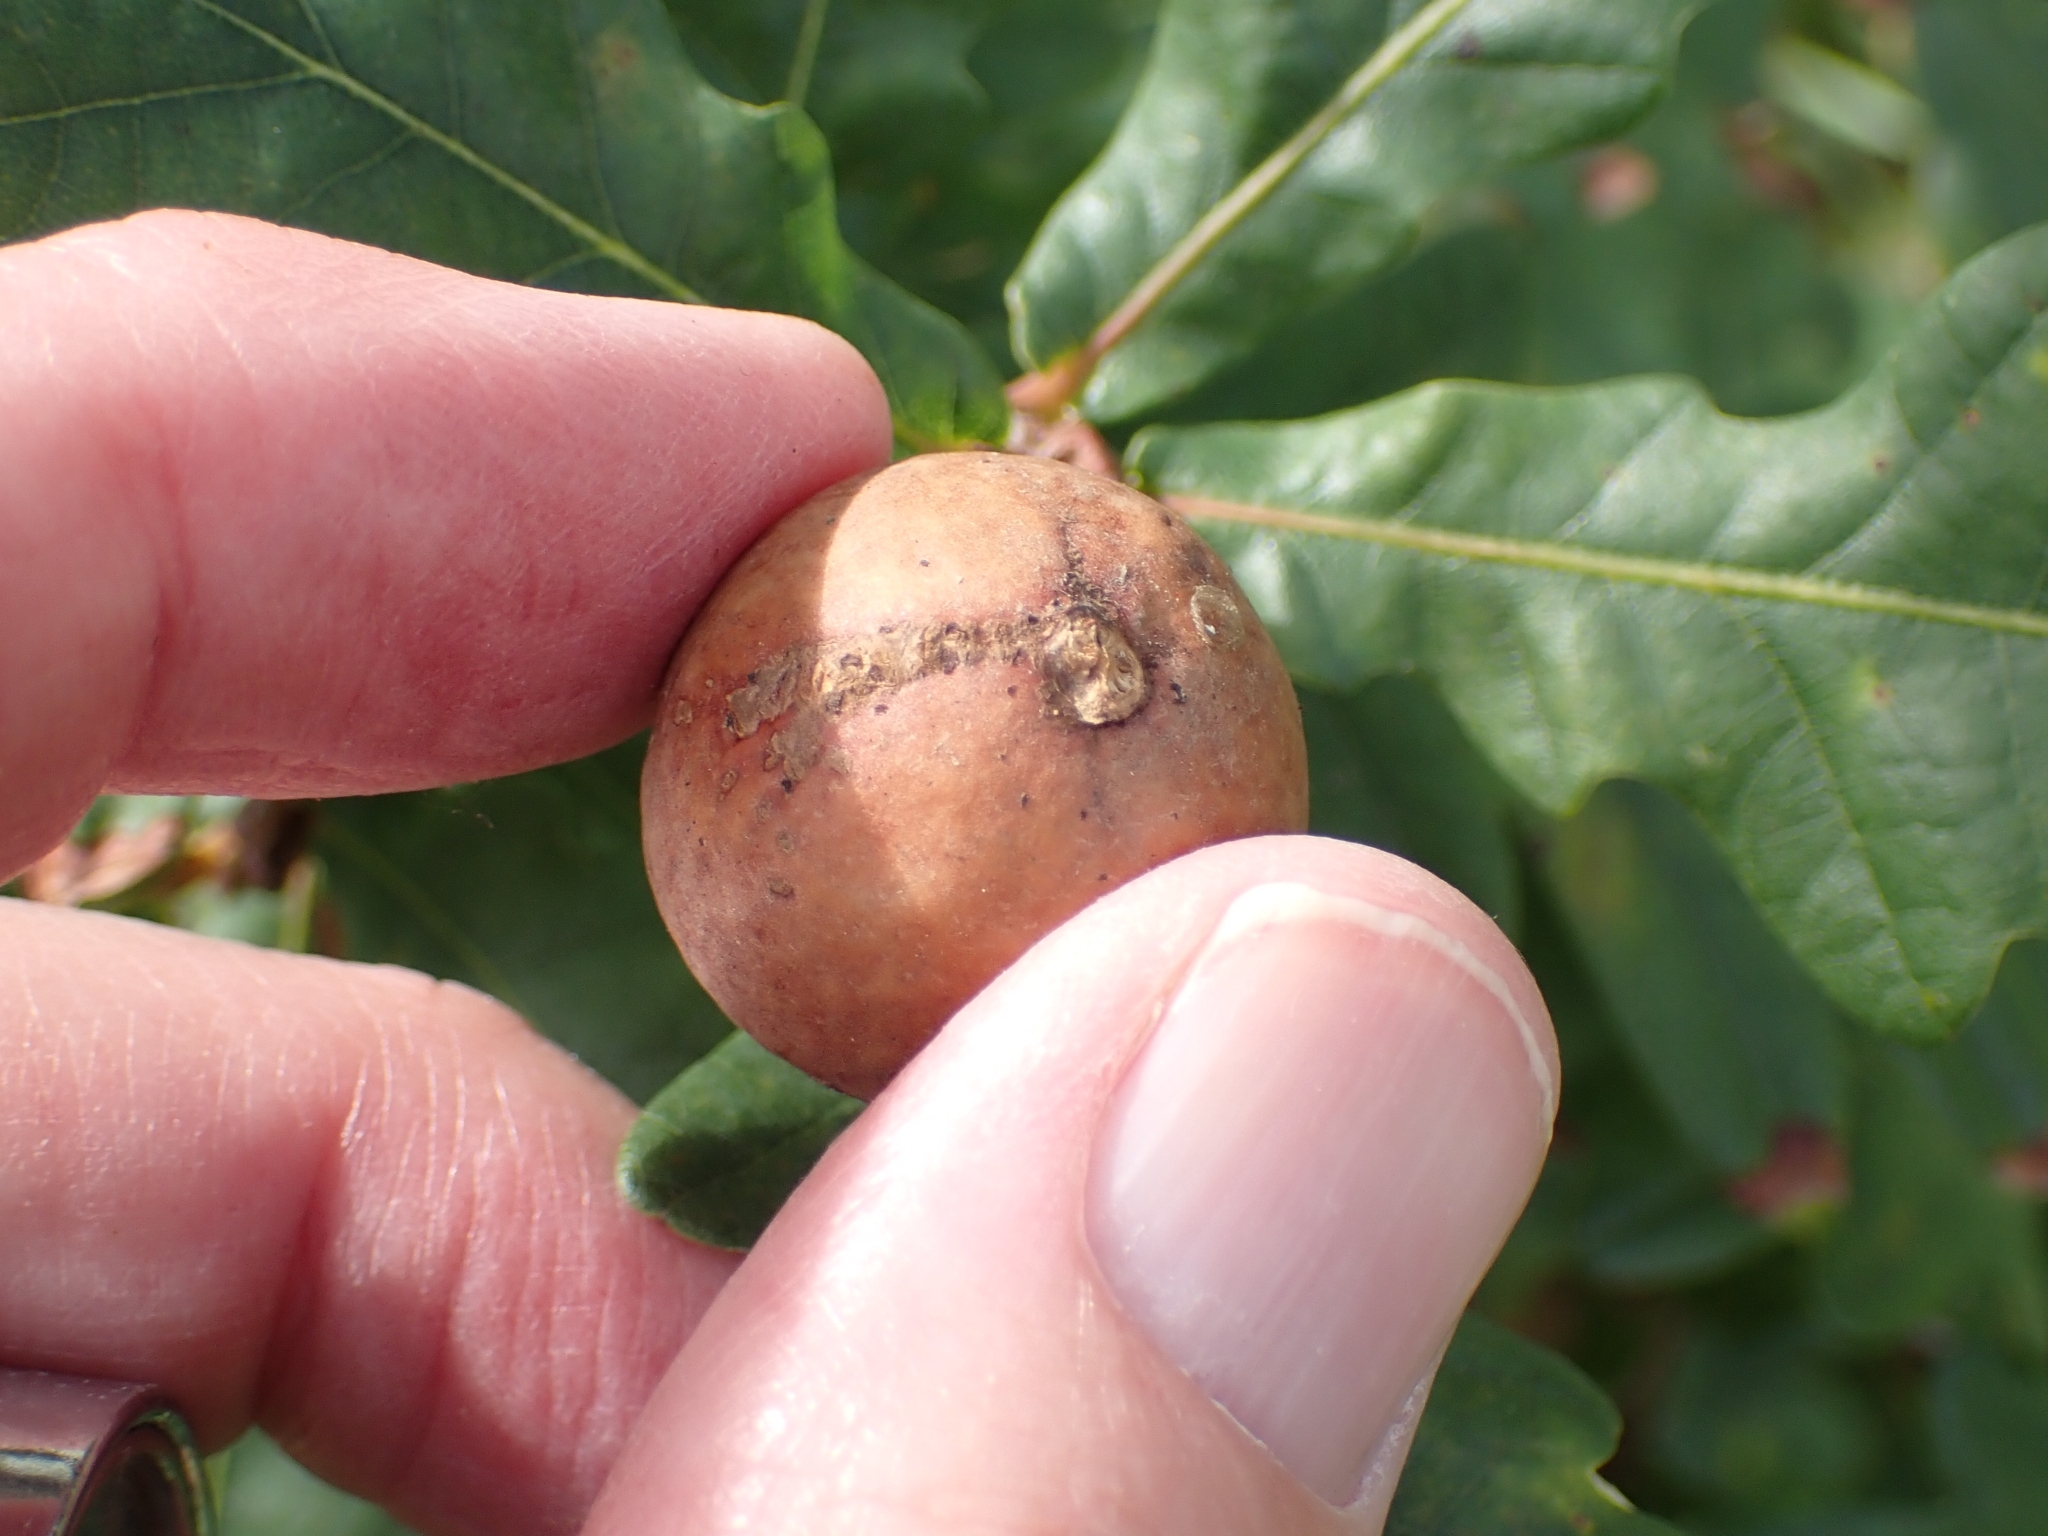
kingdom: Animalia
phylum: Arthropoda
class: Insecta
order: Hymenoptera
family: Cynipidae
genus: Andricus
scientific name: Andricus kollari
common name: Marble gall
